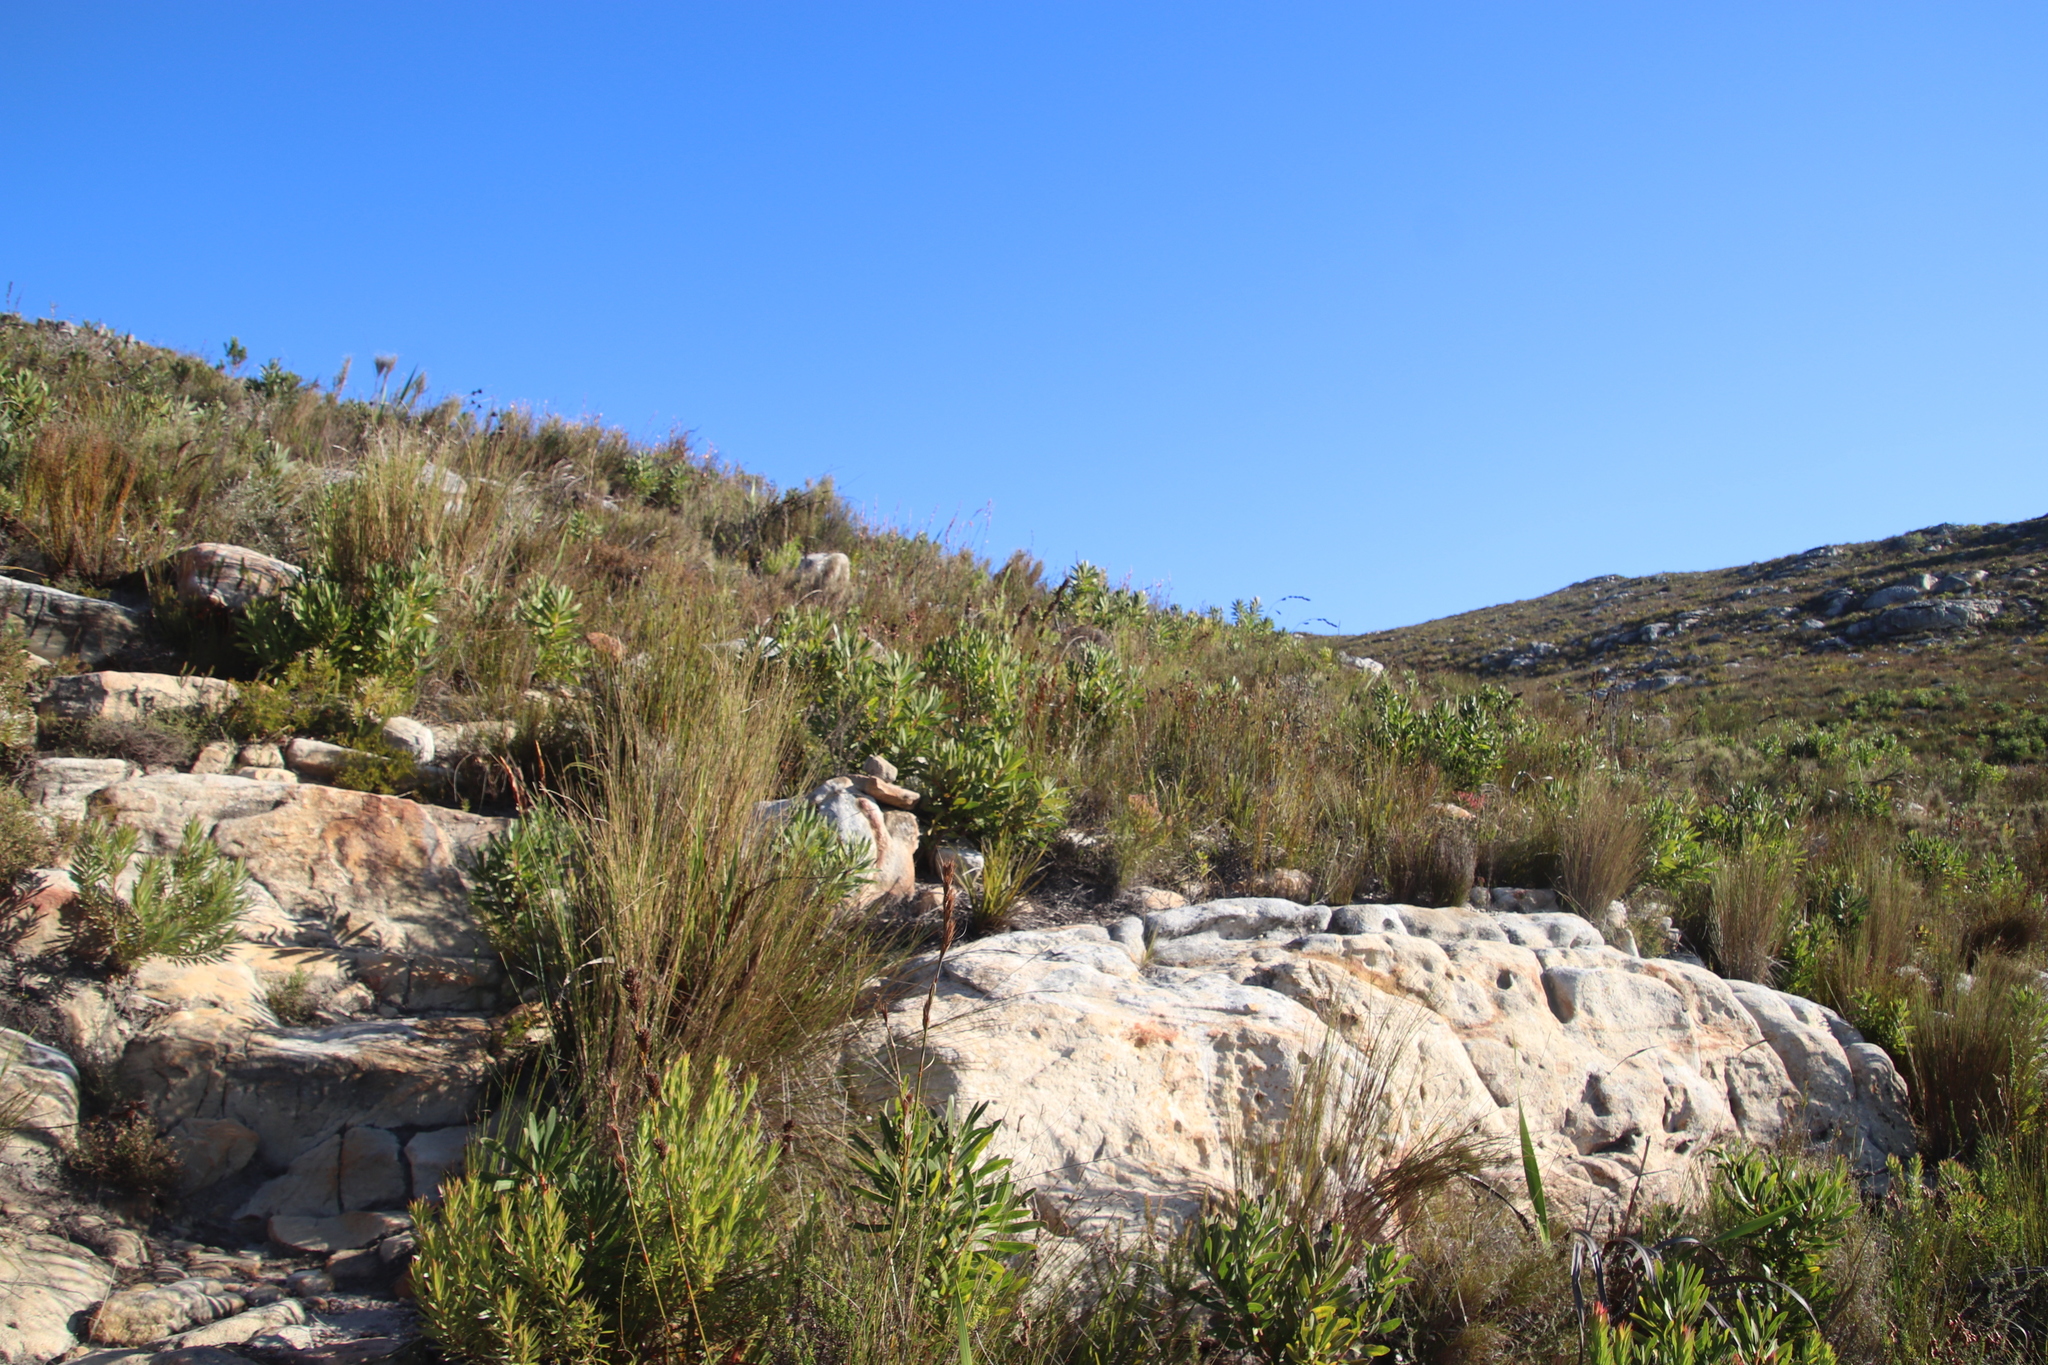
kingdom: Plantae
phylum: Tracheophyta
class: Magnoliopsida
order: Proteales
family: Proteaceae
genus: Protea
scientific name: Protea lepidocarpodendron
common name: Black-bearded protea
